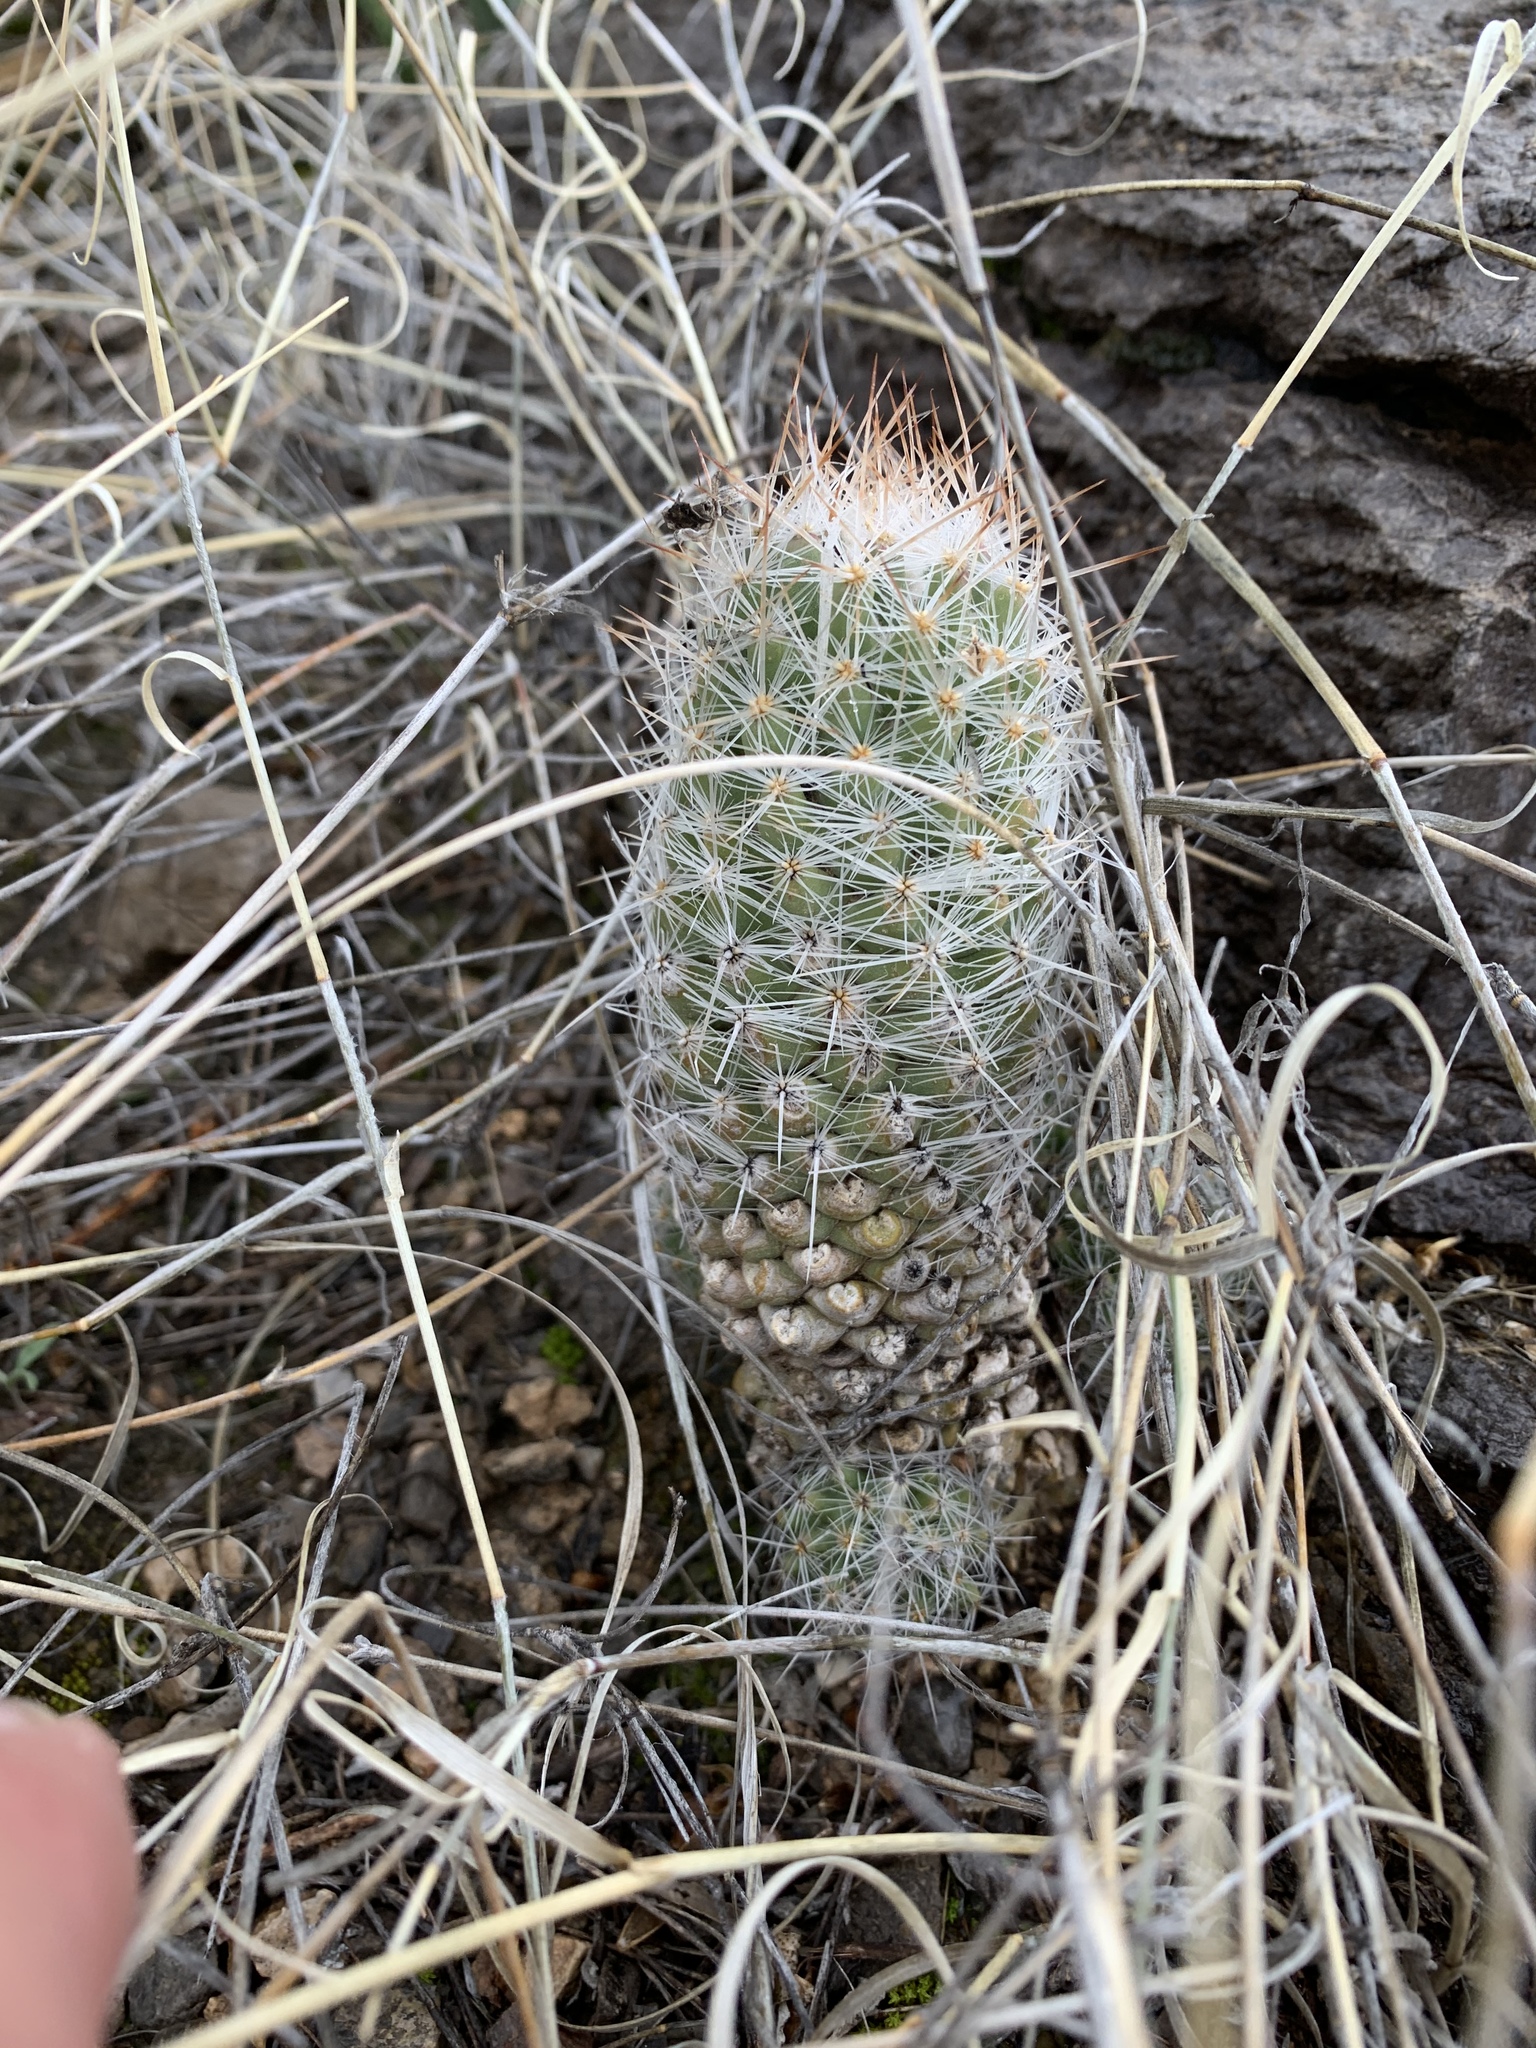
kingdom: Plantae
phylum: Tracheophyta
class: Magnoliopsida
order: Caryophyllales
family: Cactaceae
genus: Pelecyphora
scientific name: Pelecyphora tuberculosa
